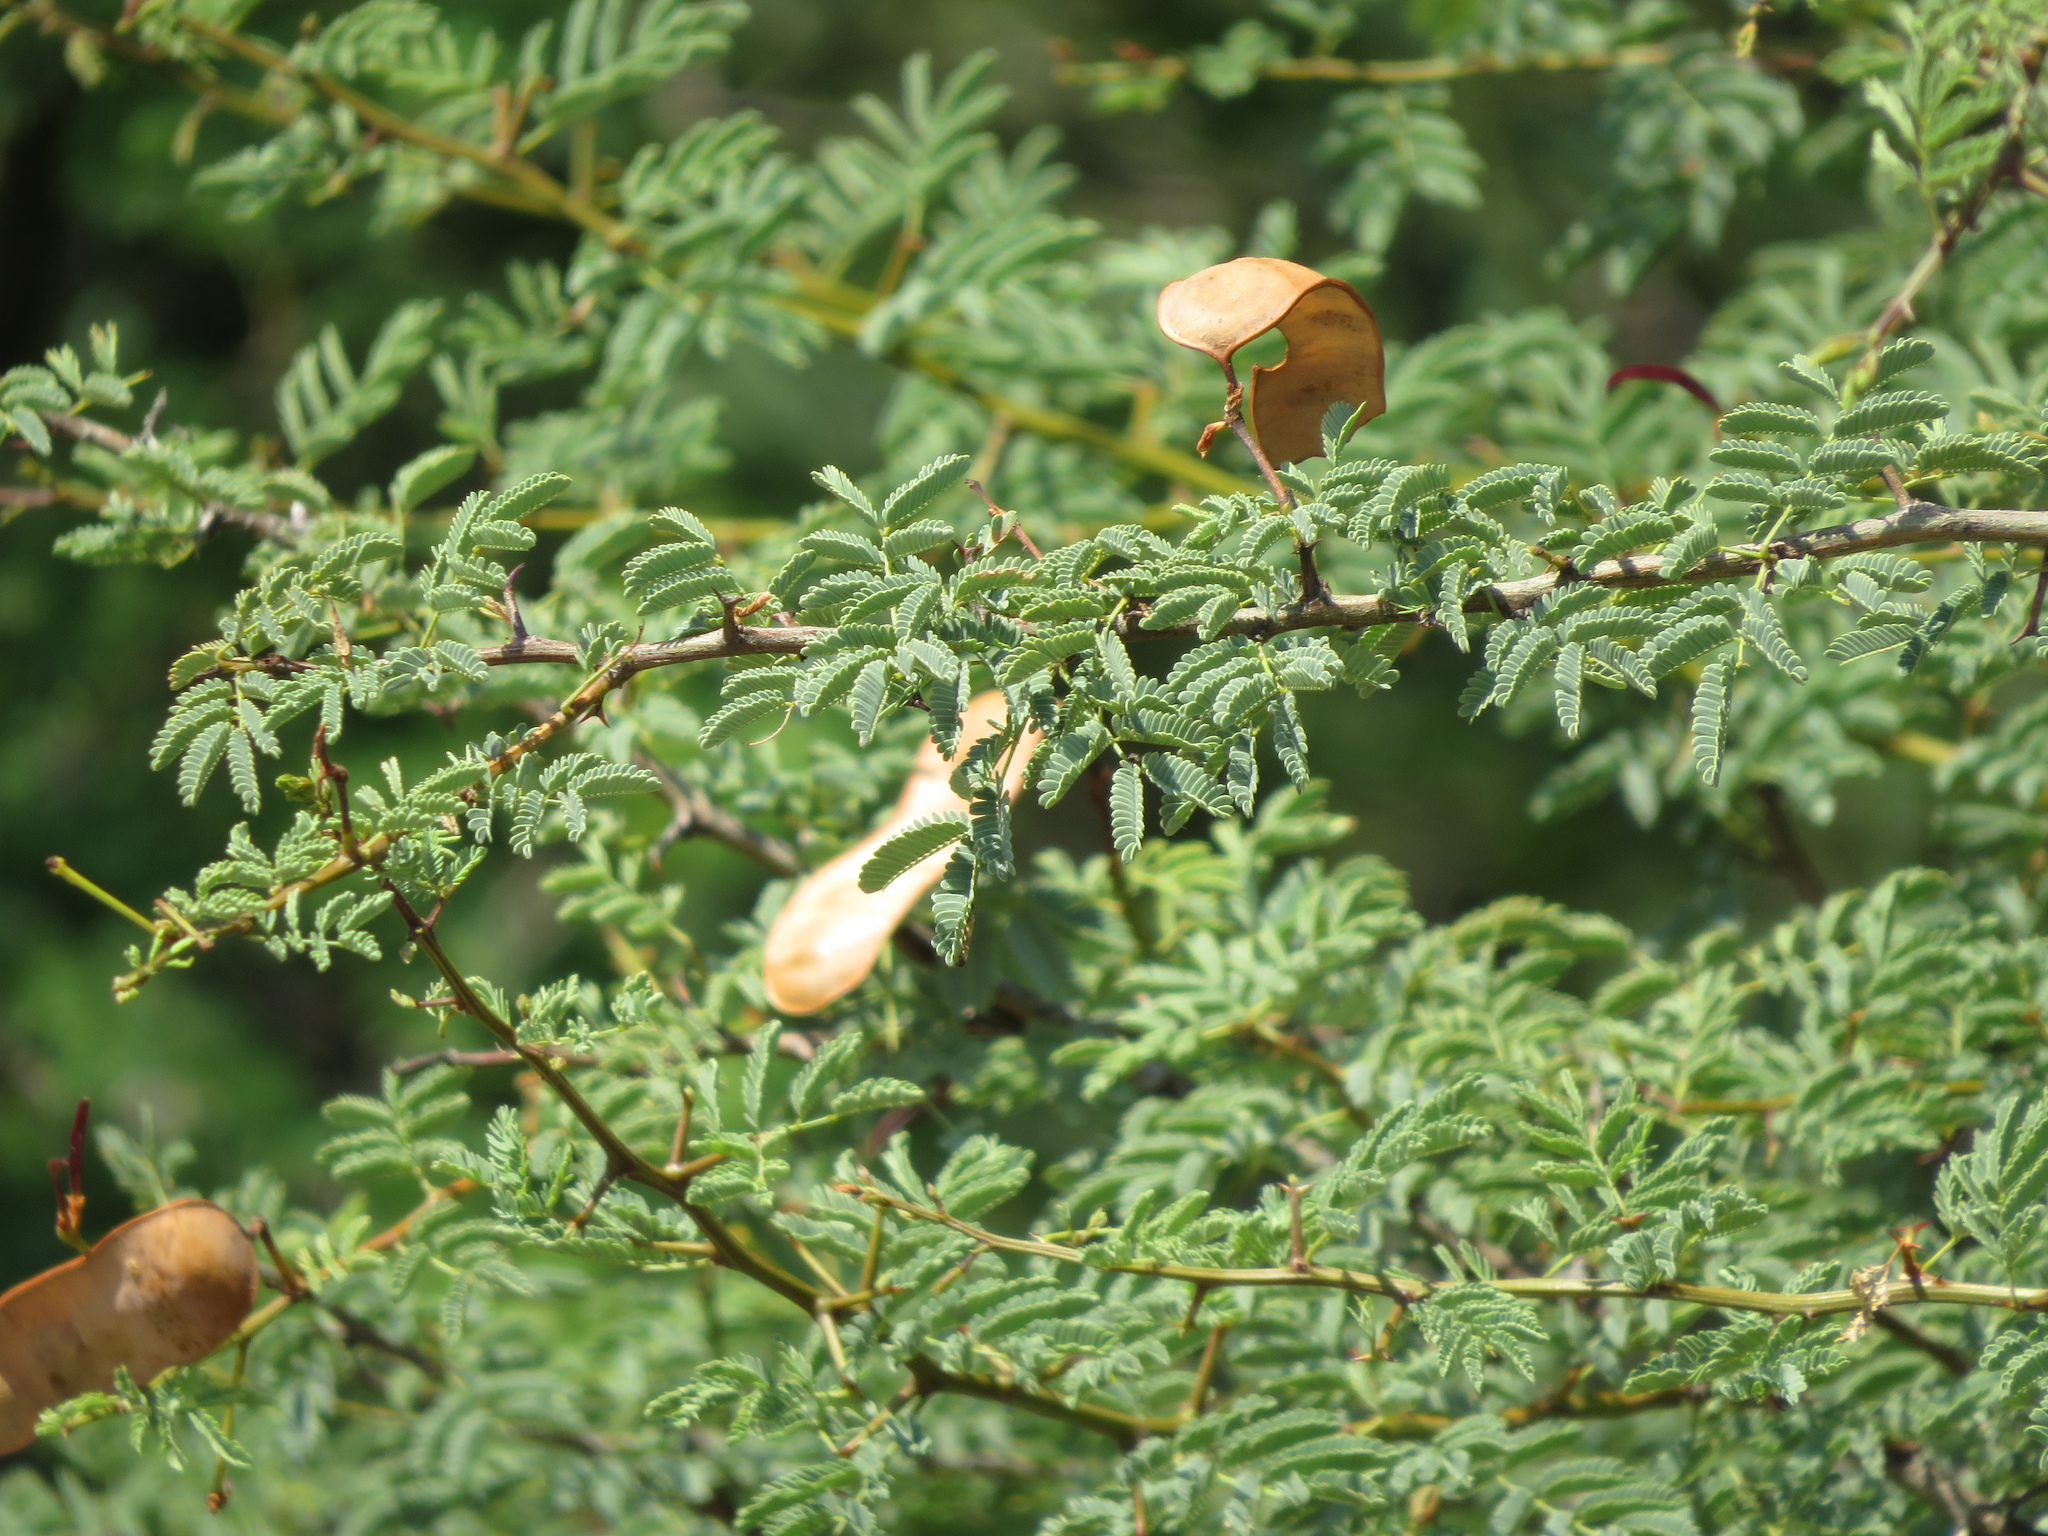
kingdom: Plantae
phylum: Tracheophyta
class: Magnoliopsida
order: Fabales
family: Fabaceae
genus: Senegalia
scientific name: Senegalia gilliesii
